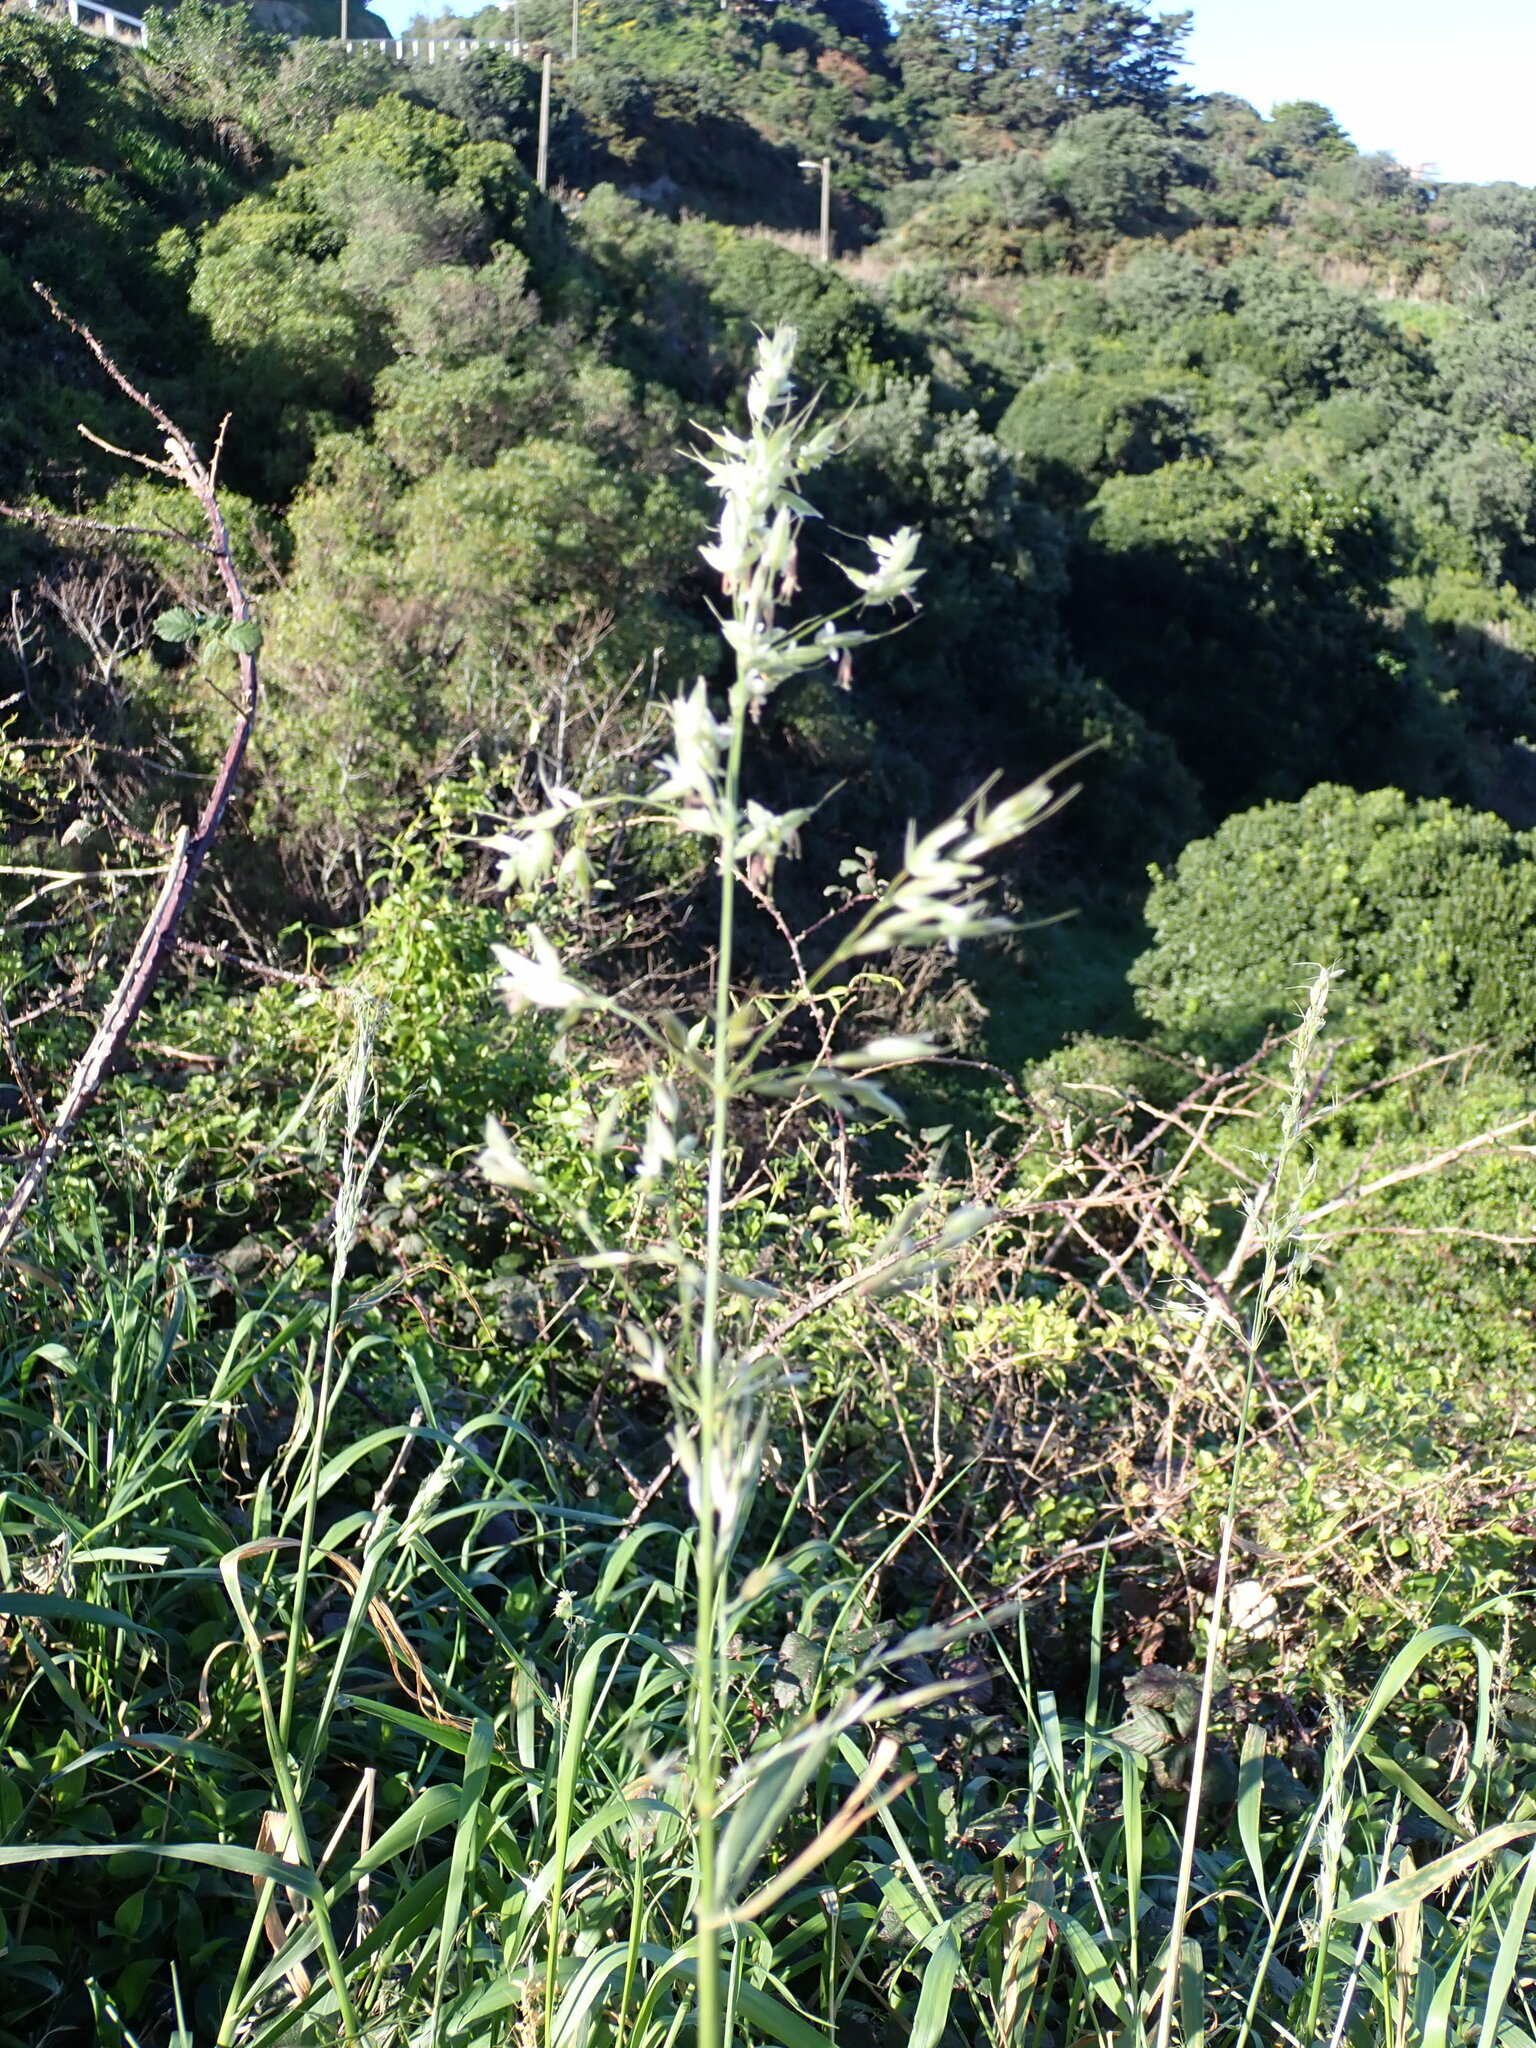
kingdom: Plantae
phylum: Tracheophyta
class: Liliopsida
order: Poales
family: Poaceae
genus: Arrhenatherum
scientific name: Arrhenatherum elatius
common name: Tall oatgrass
